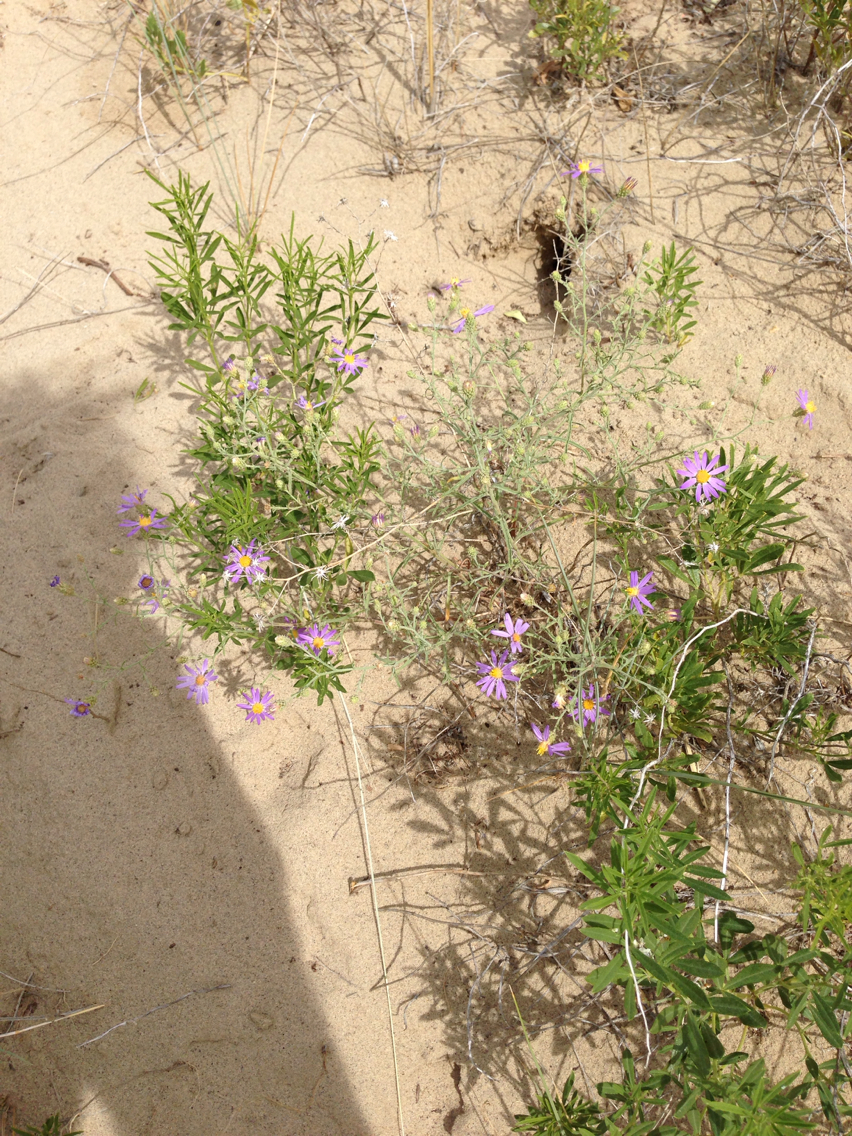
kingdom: Plantae
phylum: Tracheophyta
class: Magnoliopsida
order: Asterales
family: Asteraceae
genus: Dieteria
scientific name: Dieteria canescens
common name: Hoary-aster
